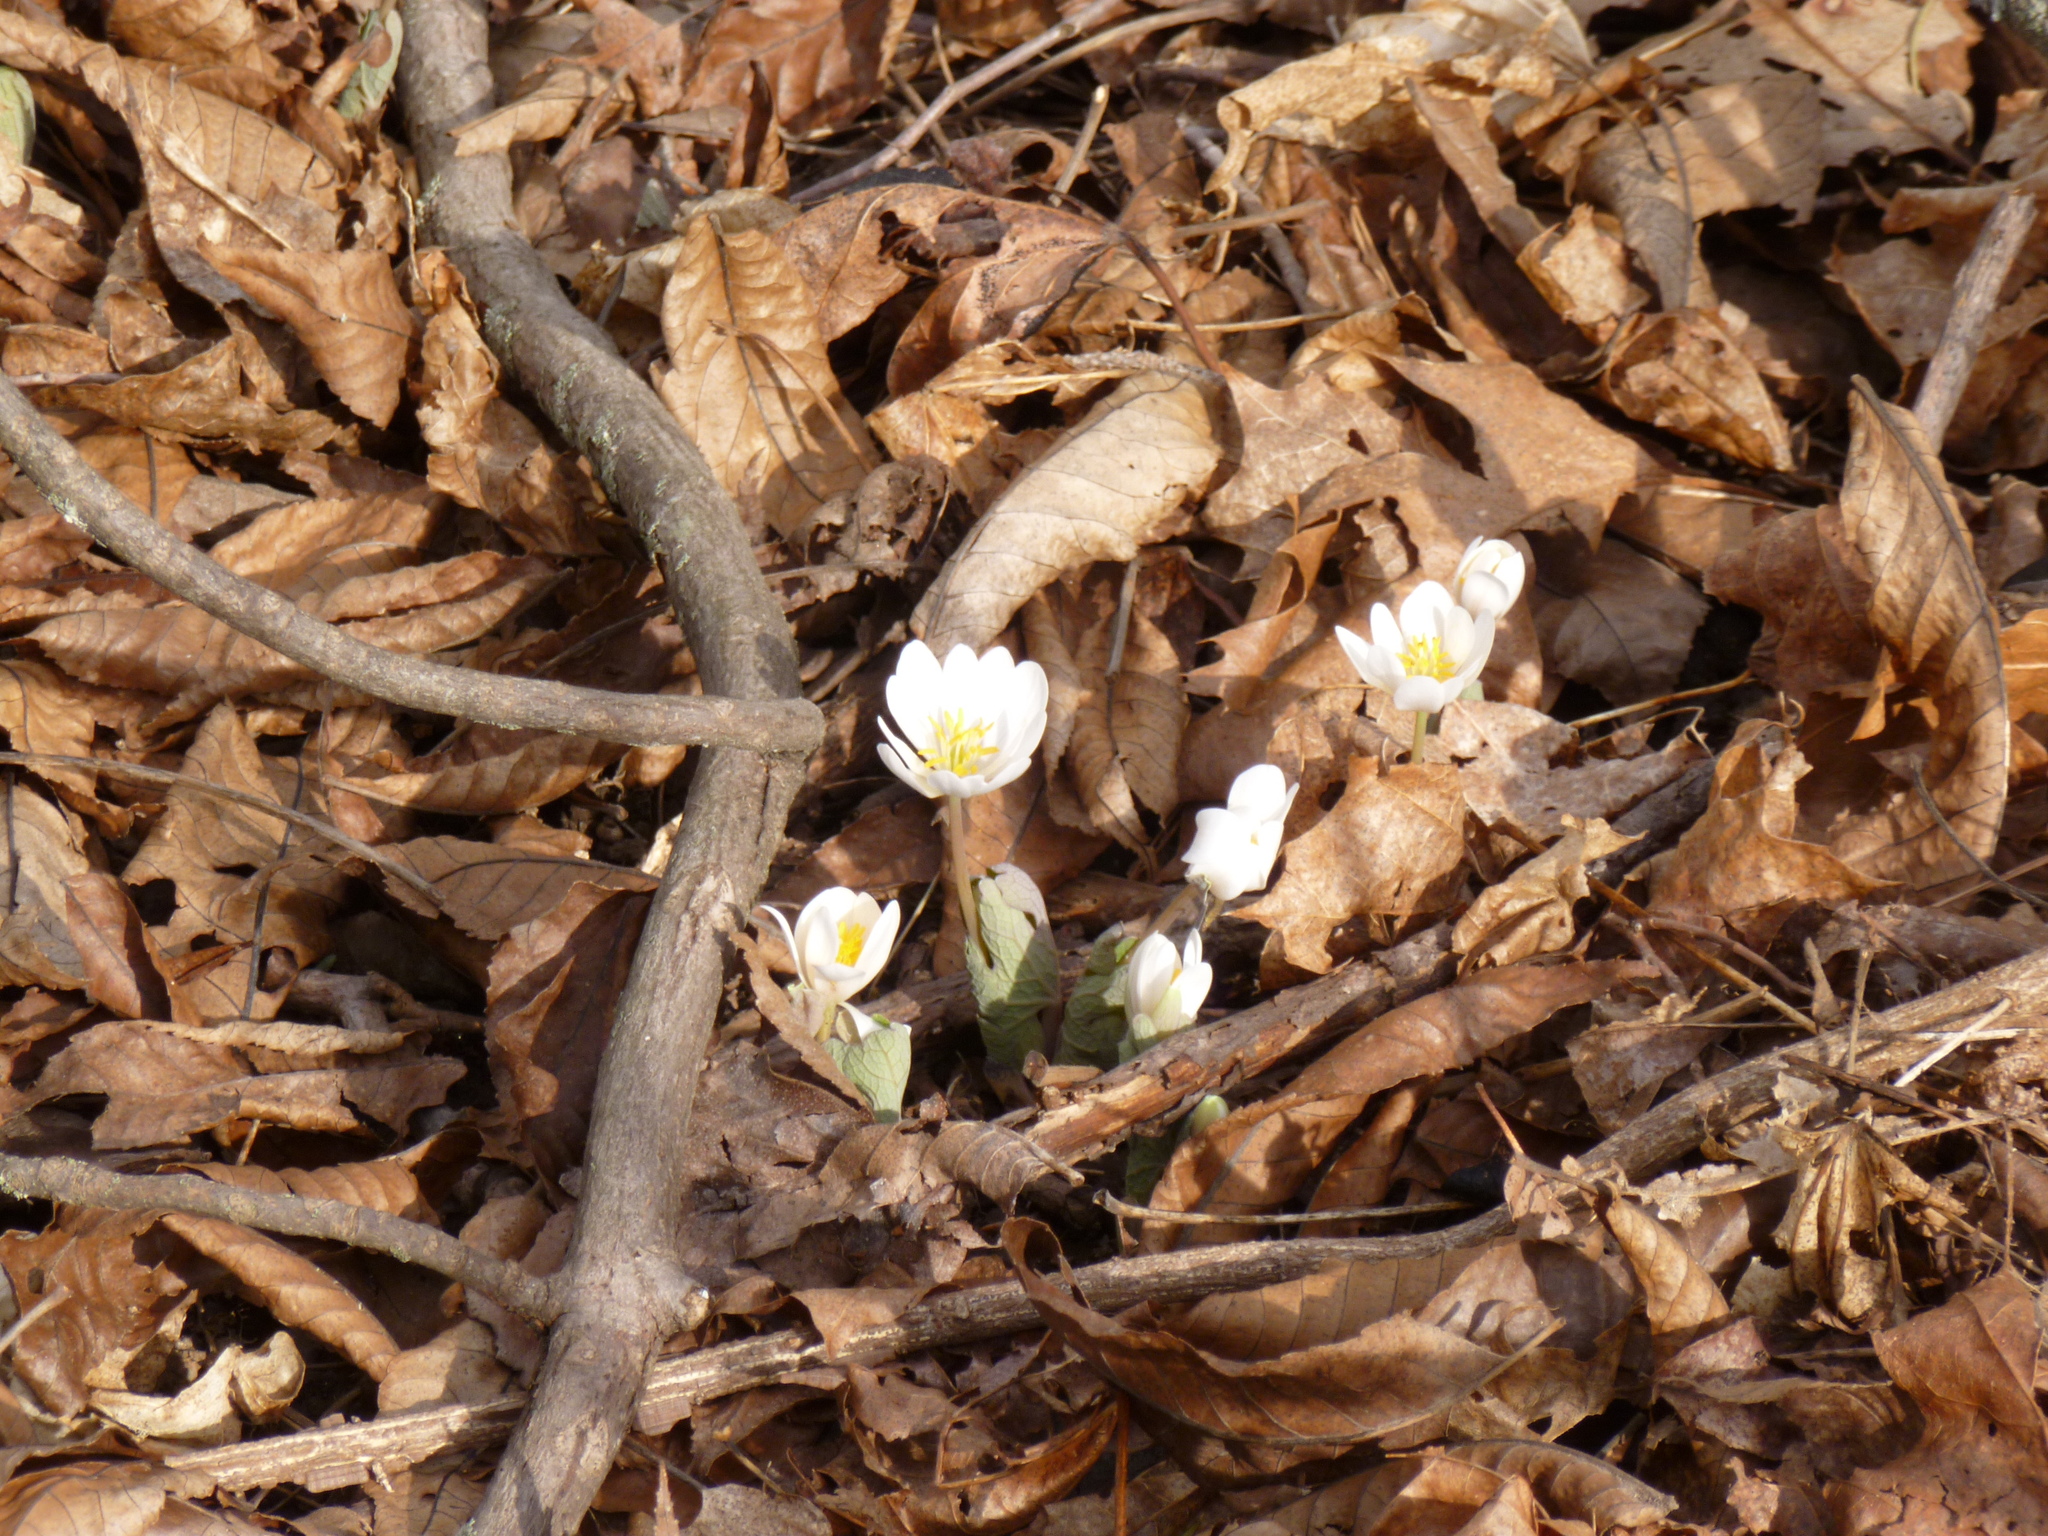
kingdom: Plantae
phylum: Tracheophyta
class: Magnoliopsida
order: Ranunculales
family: Papaveraceae
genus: Sanguinaria
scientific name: Sanguinaria canadensis
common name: Bloodroot
